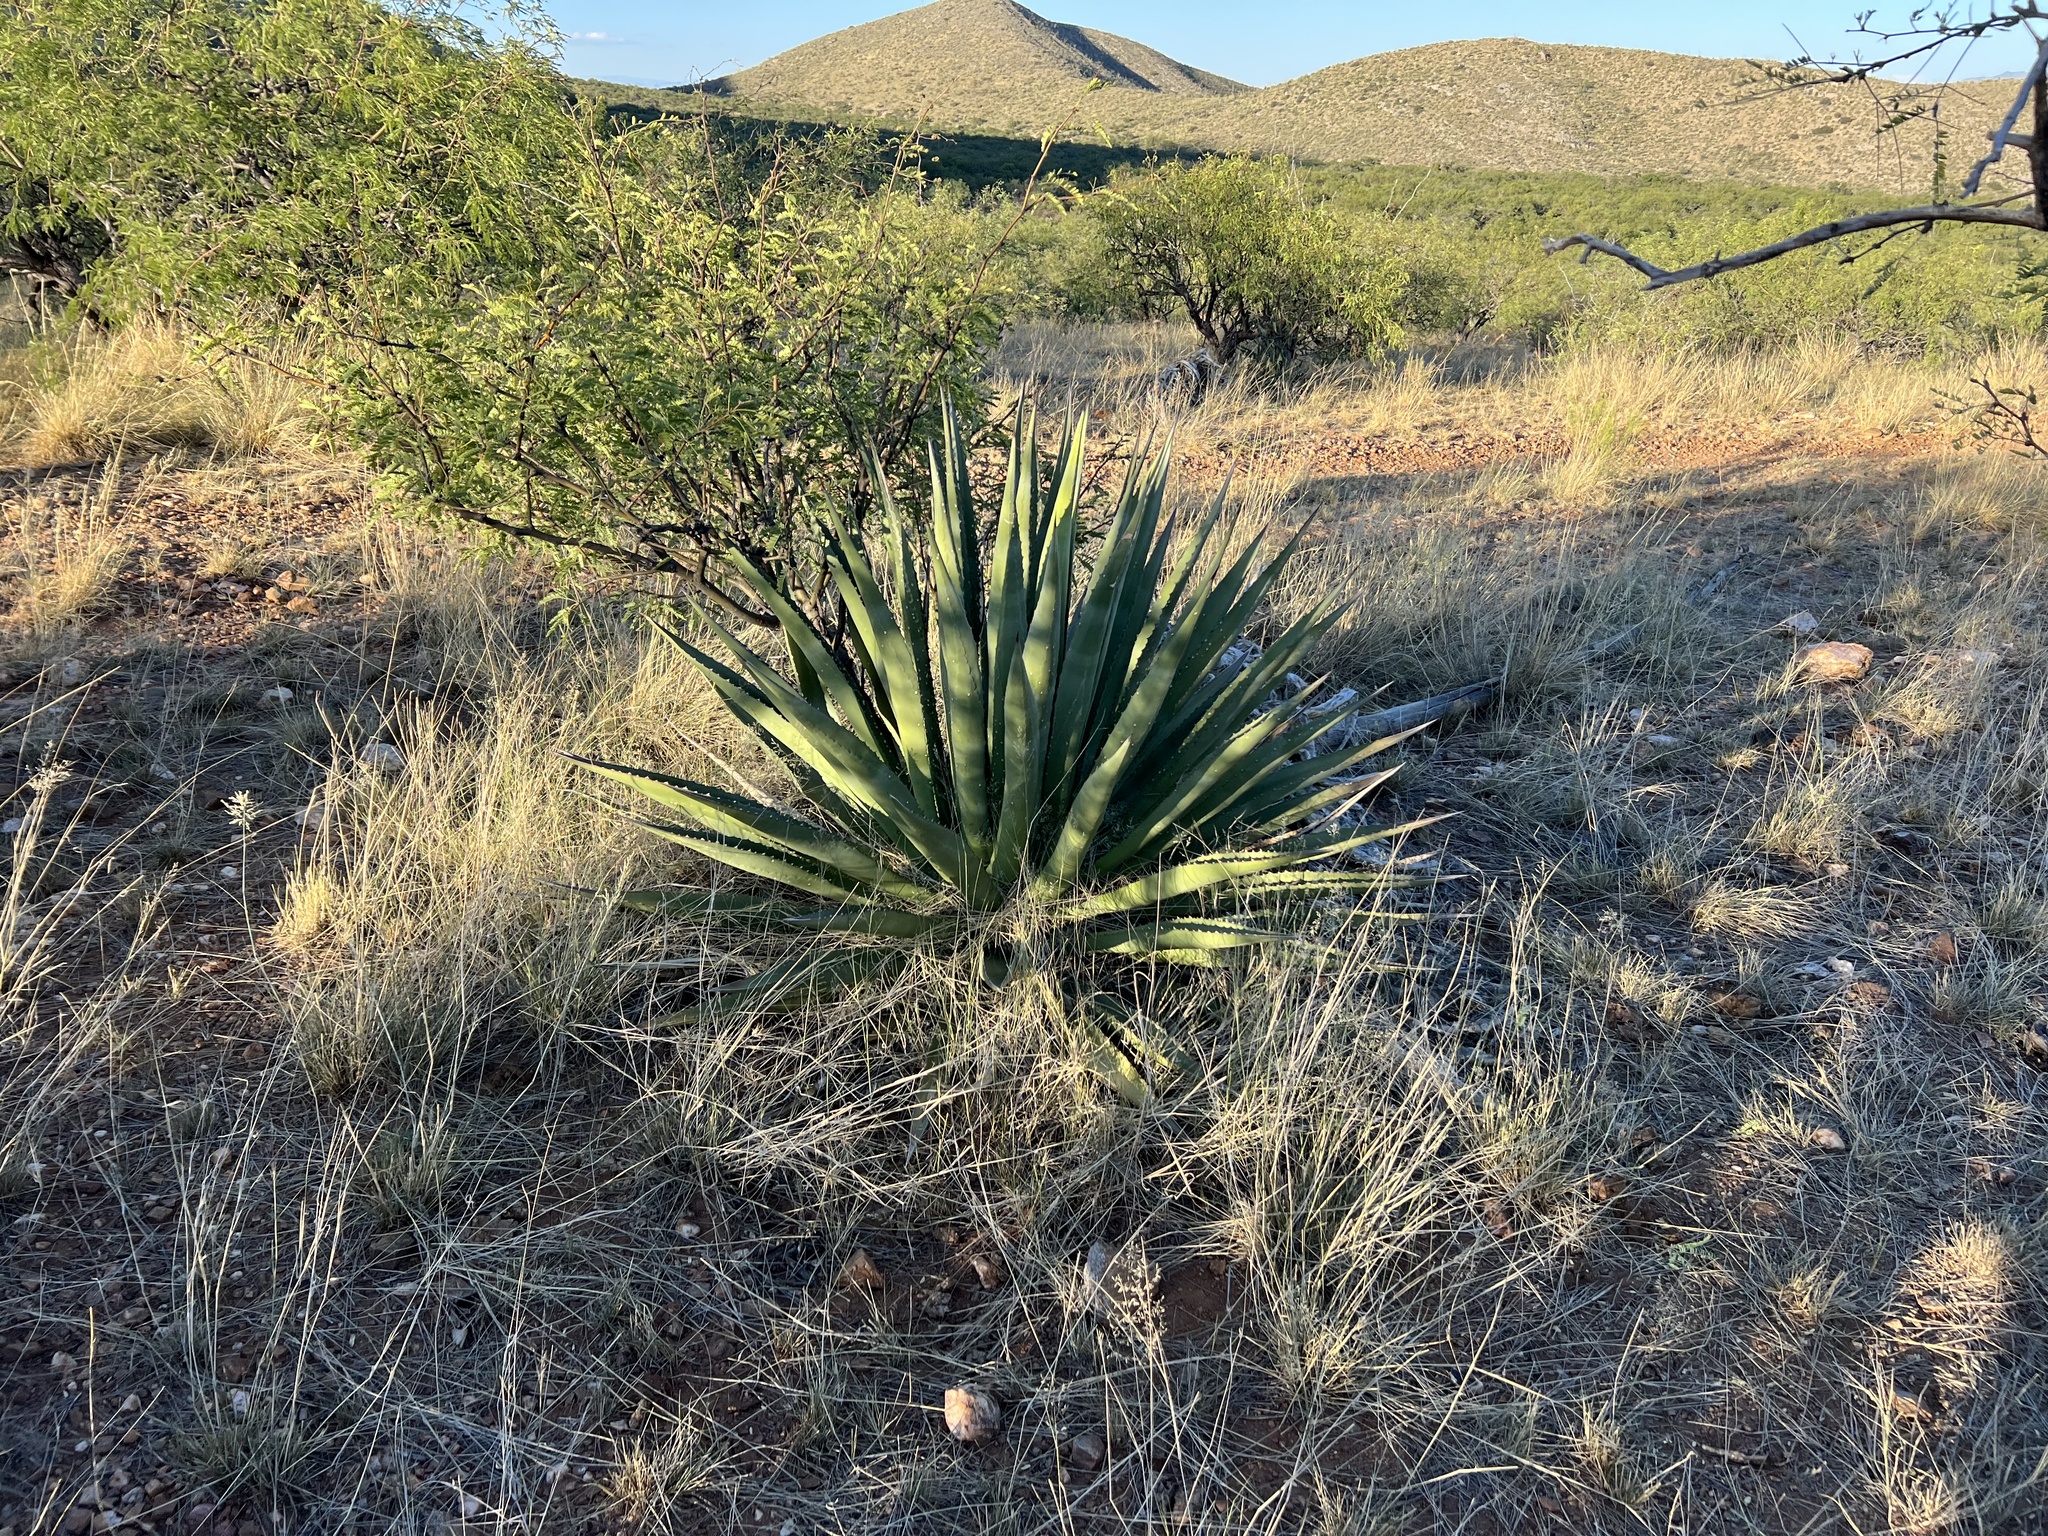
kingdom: Plantae
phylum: Tracheophyta
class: Liliopsida
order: Asparagales
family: Asparagaceae
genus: Agave
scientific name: Agave palmeri
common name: Palmer agave
